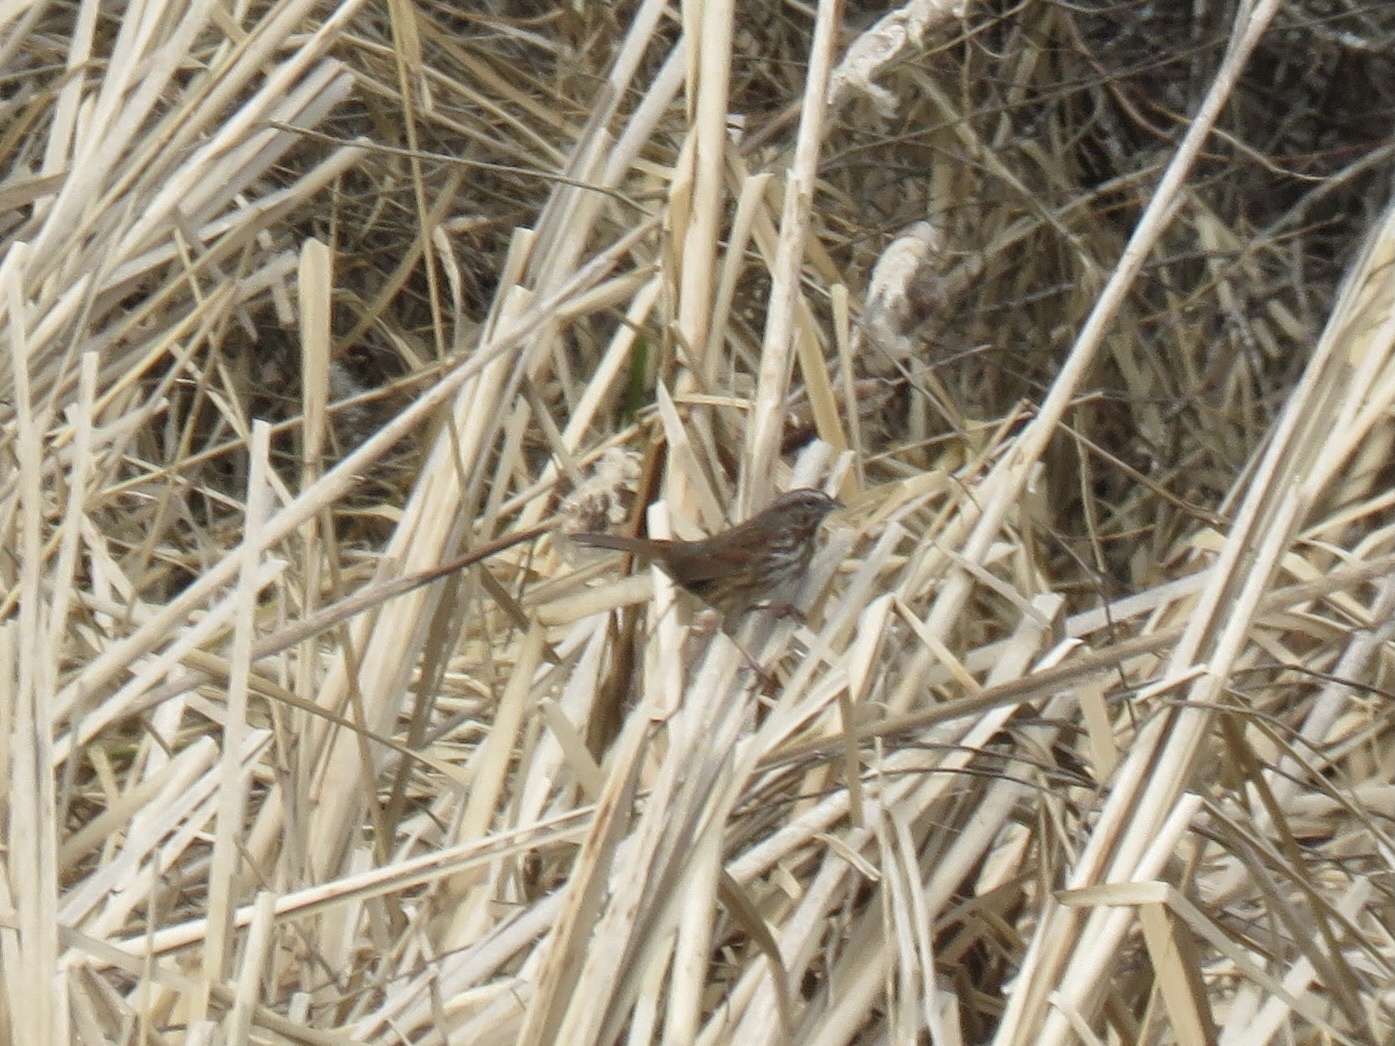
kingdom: Animalia
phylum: Chordata
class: Aves
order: Passeriformes
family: Passerellidae
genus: Melospiza
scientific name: Melospiza melodia
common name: Song sparrow
